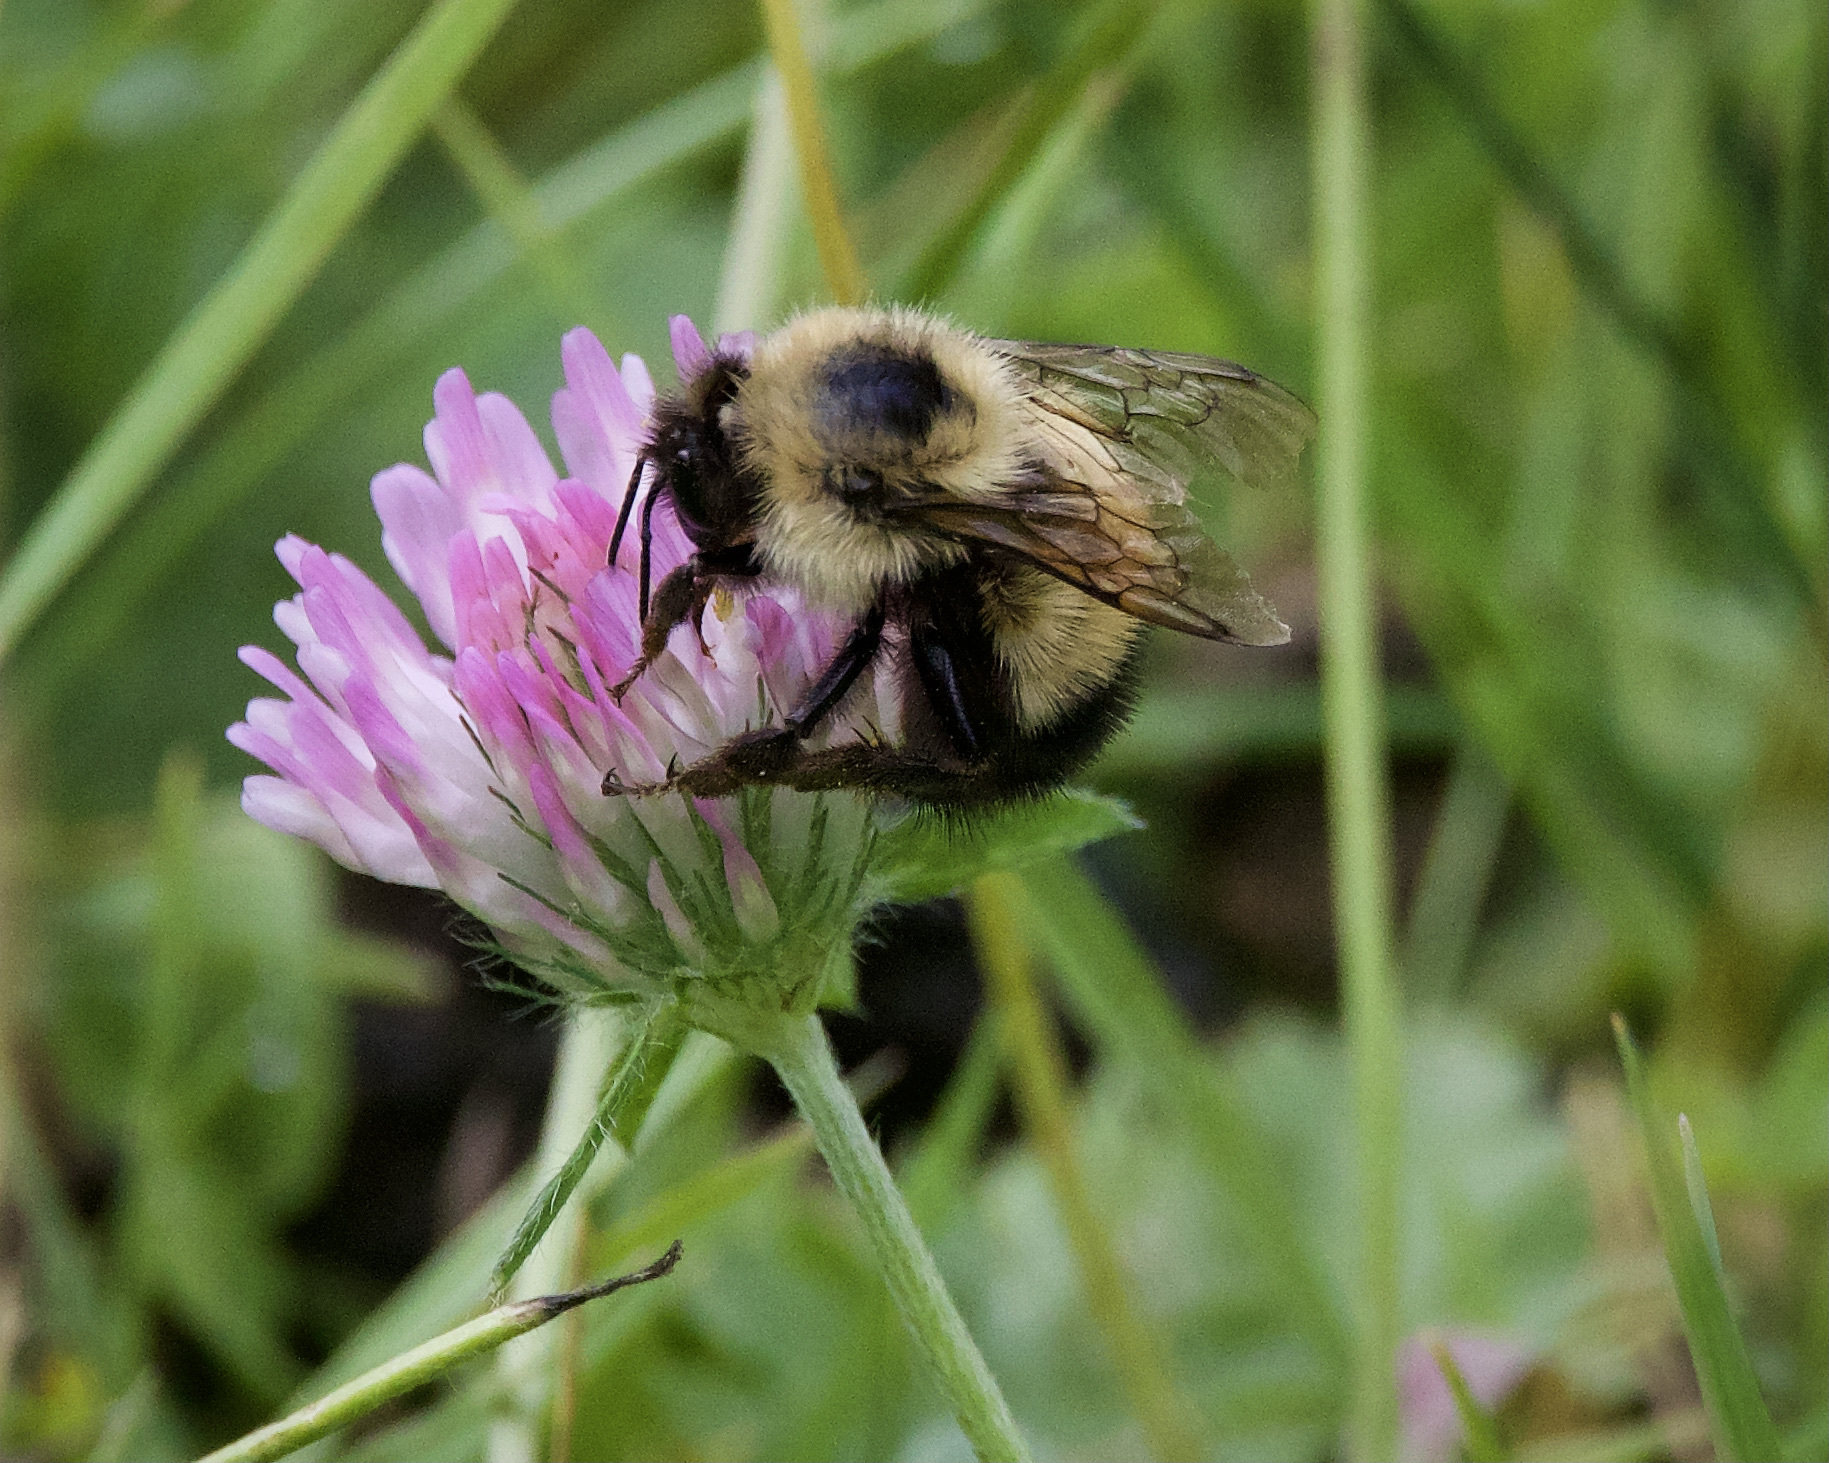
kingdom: Animalia
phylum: Arthropoda
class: Insecta
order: Hymenoptera
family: Apidae
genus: Bombus
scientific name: Bombus vagans
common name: Half-black bumble bee
